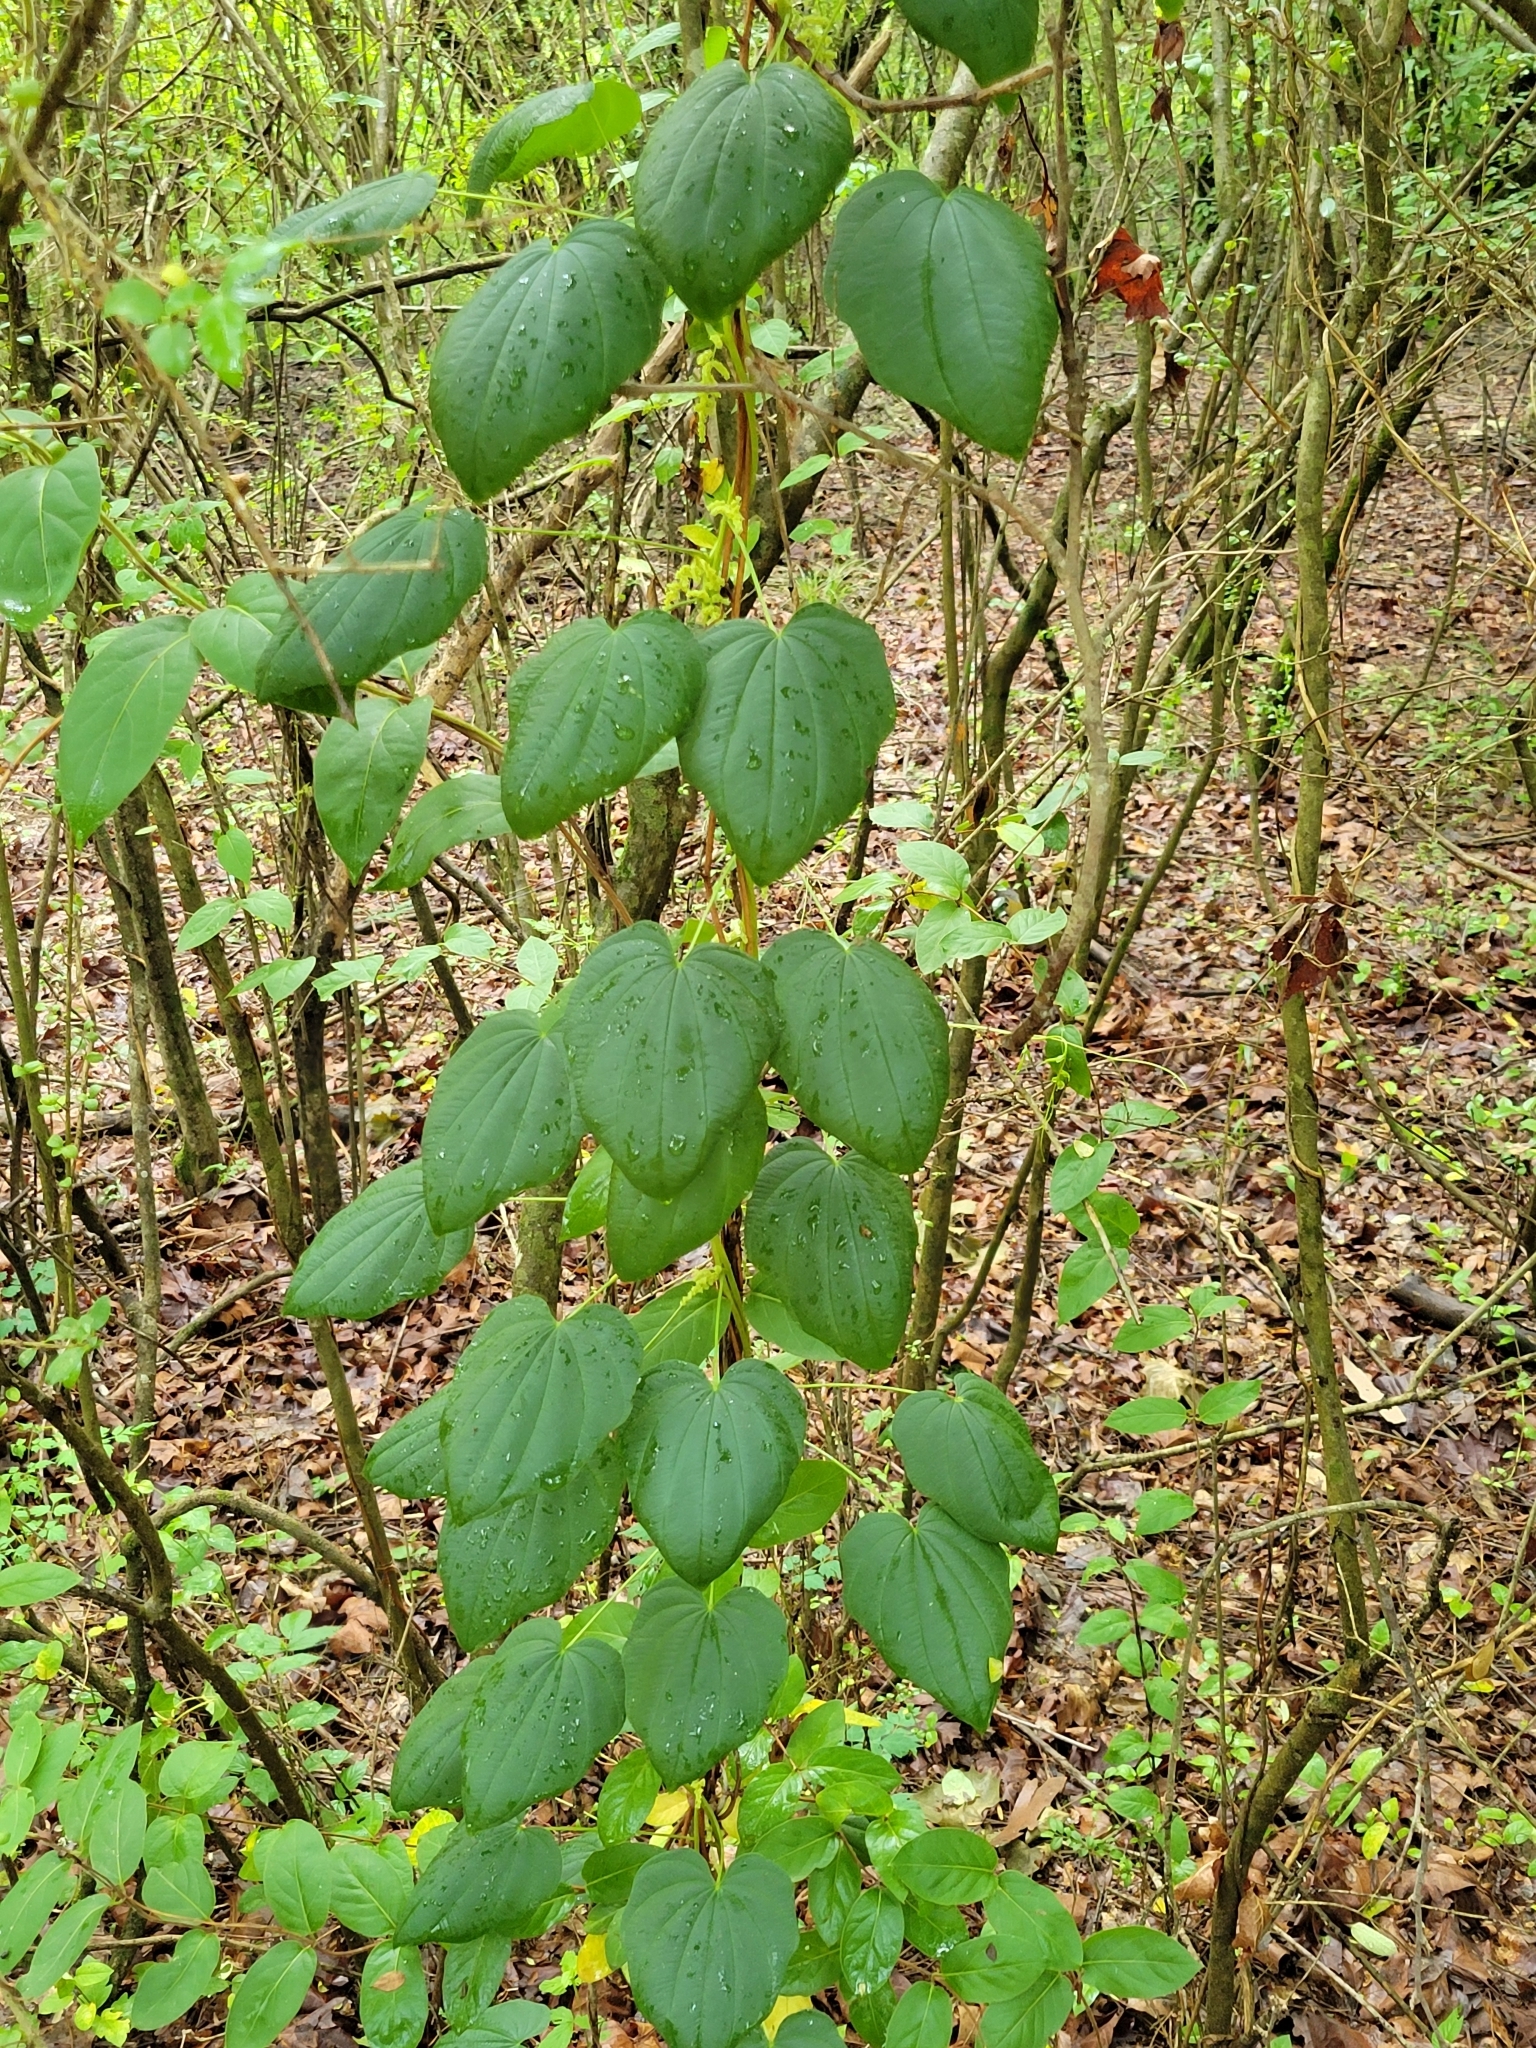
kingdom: Plantae
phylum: Tracheophyta
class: Liliopsida
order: Dioscoreales
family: Dioscoreaceae
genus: Dioscorea
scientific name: Dioscorea villosa
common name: Wild yam
